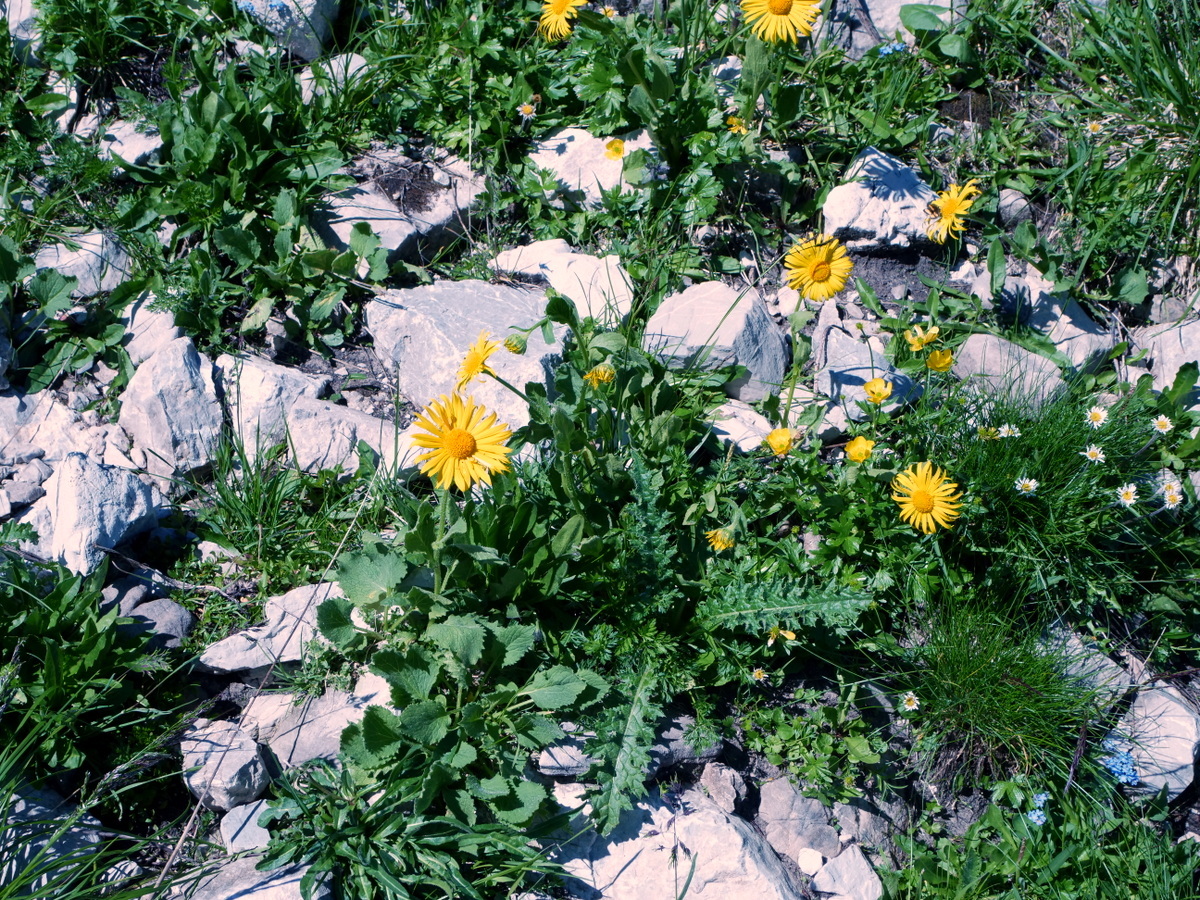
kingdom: Plantae
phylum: Tracheophyta
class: Magnoliopsida
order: Asterales
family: Asteraceae
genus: Doronicum
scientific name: Doronicum grandiflorum
